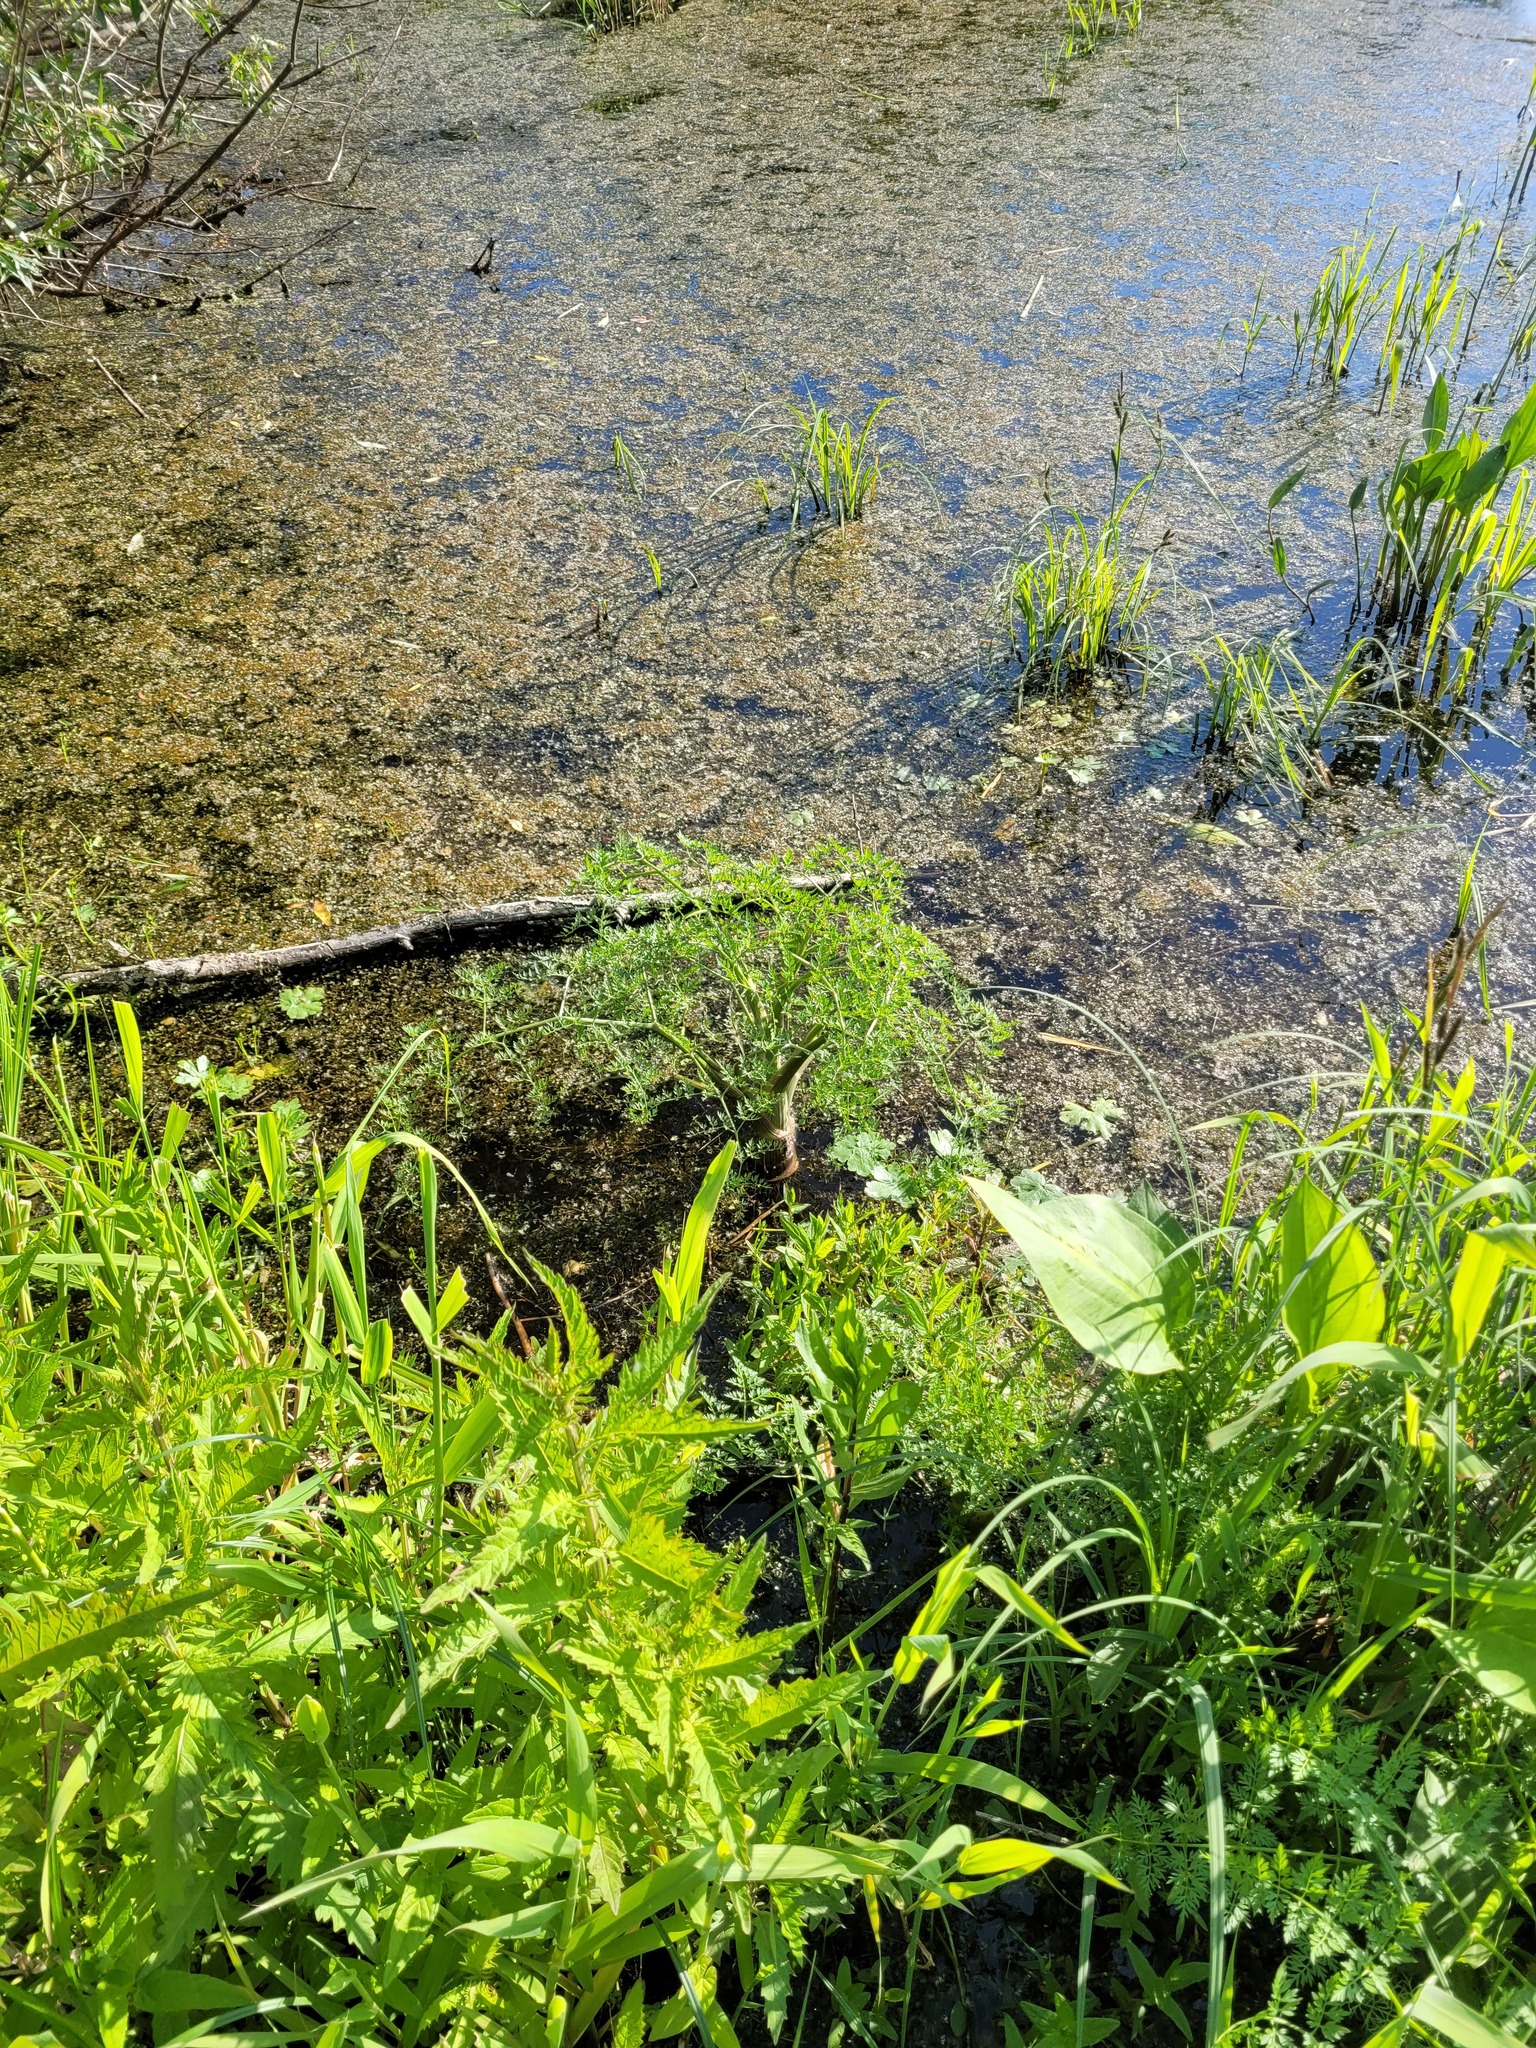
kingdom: Plantae
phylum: Tracheophyta
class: Magnoliopsida
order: Apiales
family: Apiaceae
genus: Oenanthe
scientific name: Oenanthe aquatica
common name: Fine-leaved water-dropwort
